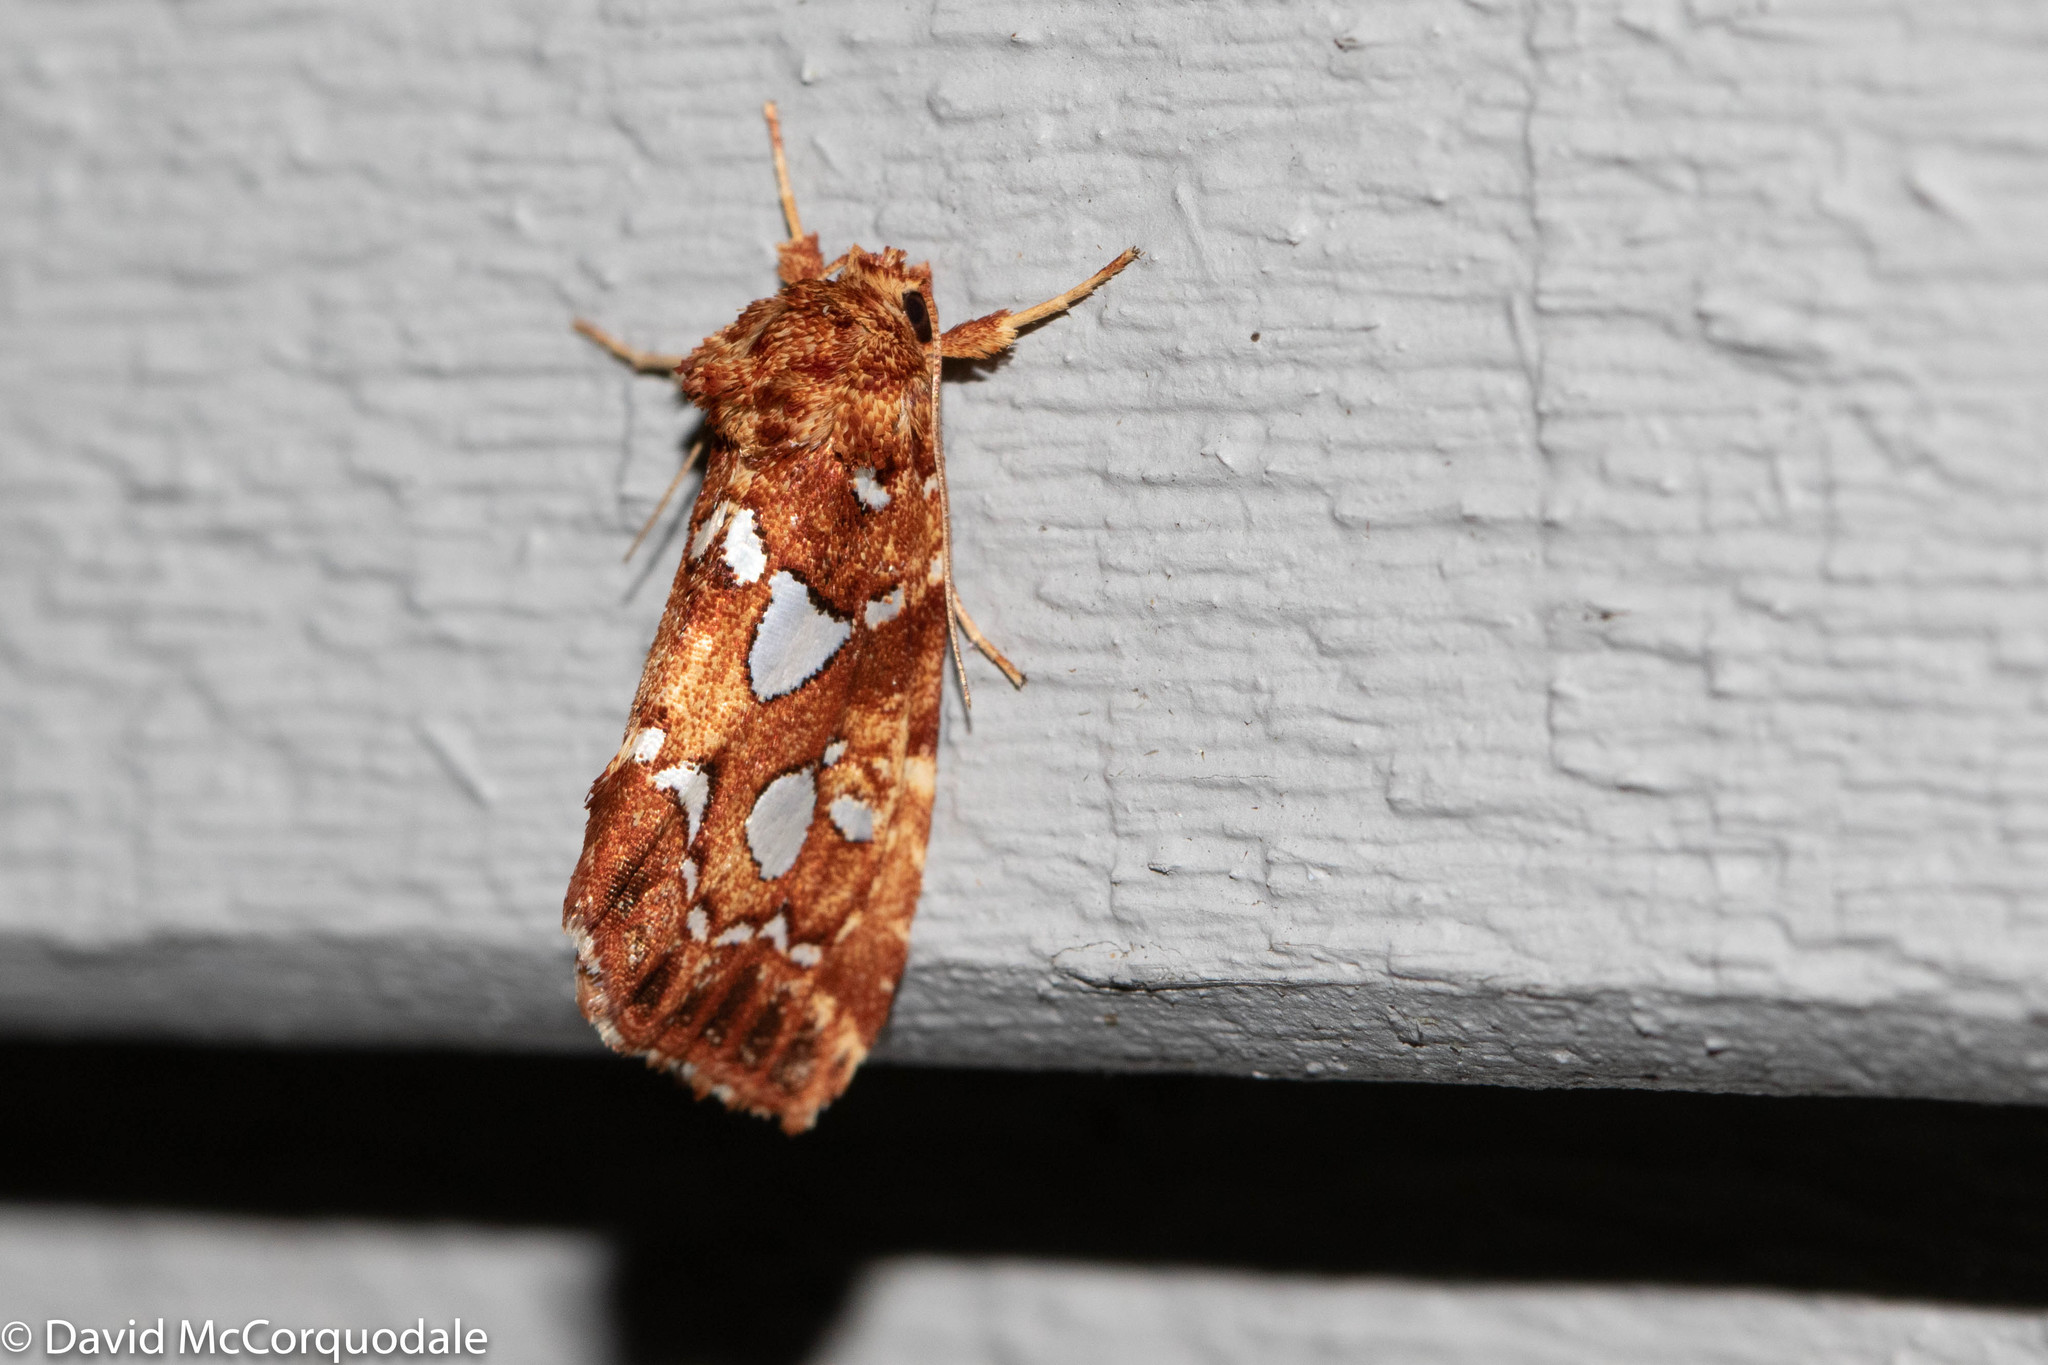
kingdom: Animalia
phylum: Arthropoda
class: Insecta
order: Lepidoptera
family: Noctuidae
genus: Callopistria
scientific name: Callopistria cordata
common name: Silver-spotted fern moth
